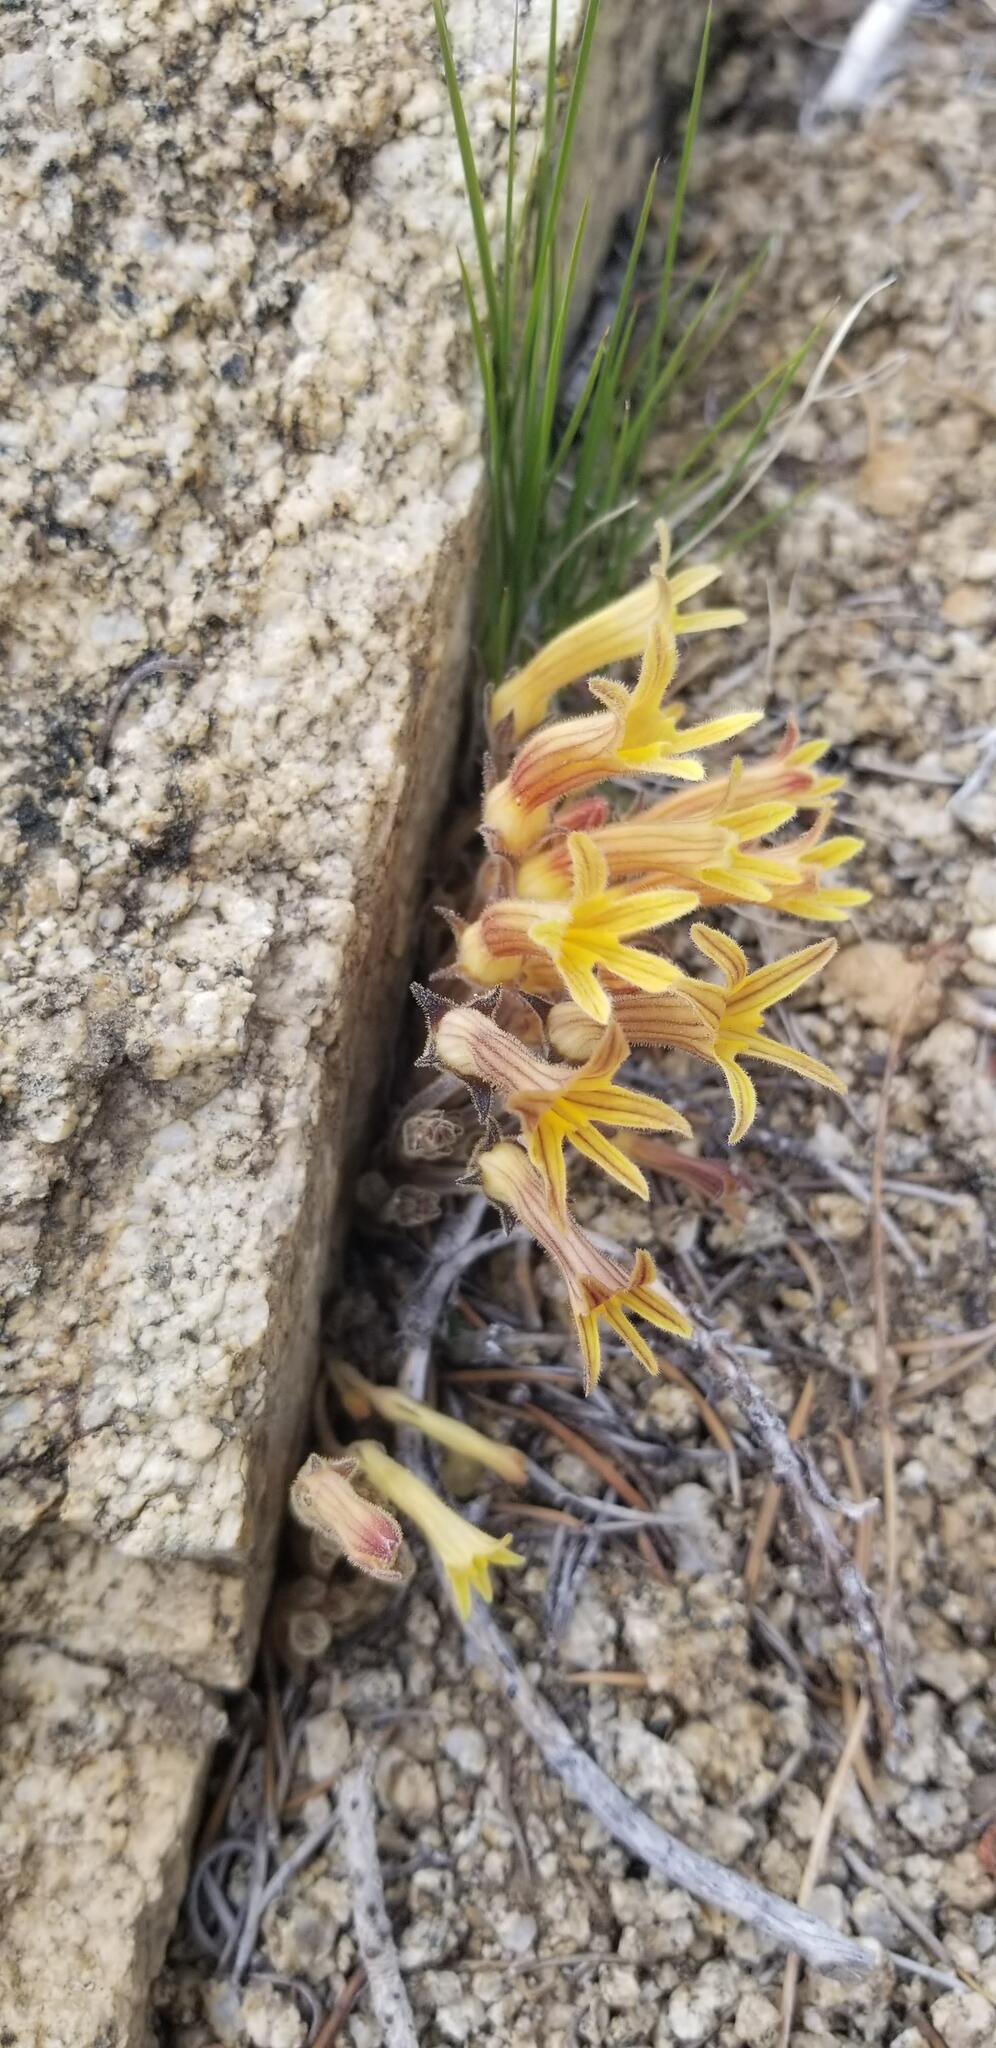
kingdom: Plantae
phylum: Tracheophyta
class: Magnoliopsida
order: Lamiales
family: Orobanchaceae
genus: Aphyllon
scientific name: Aphyllon franciscanum
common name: San francisco broomrape
